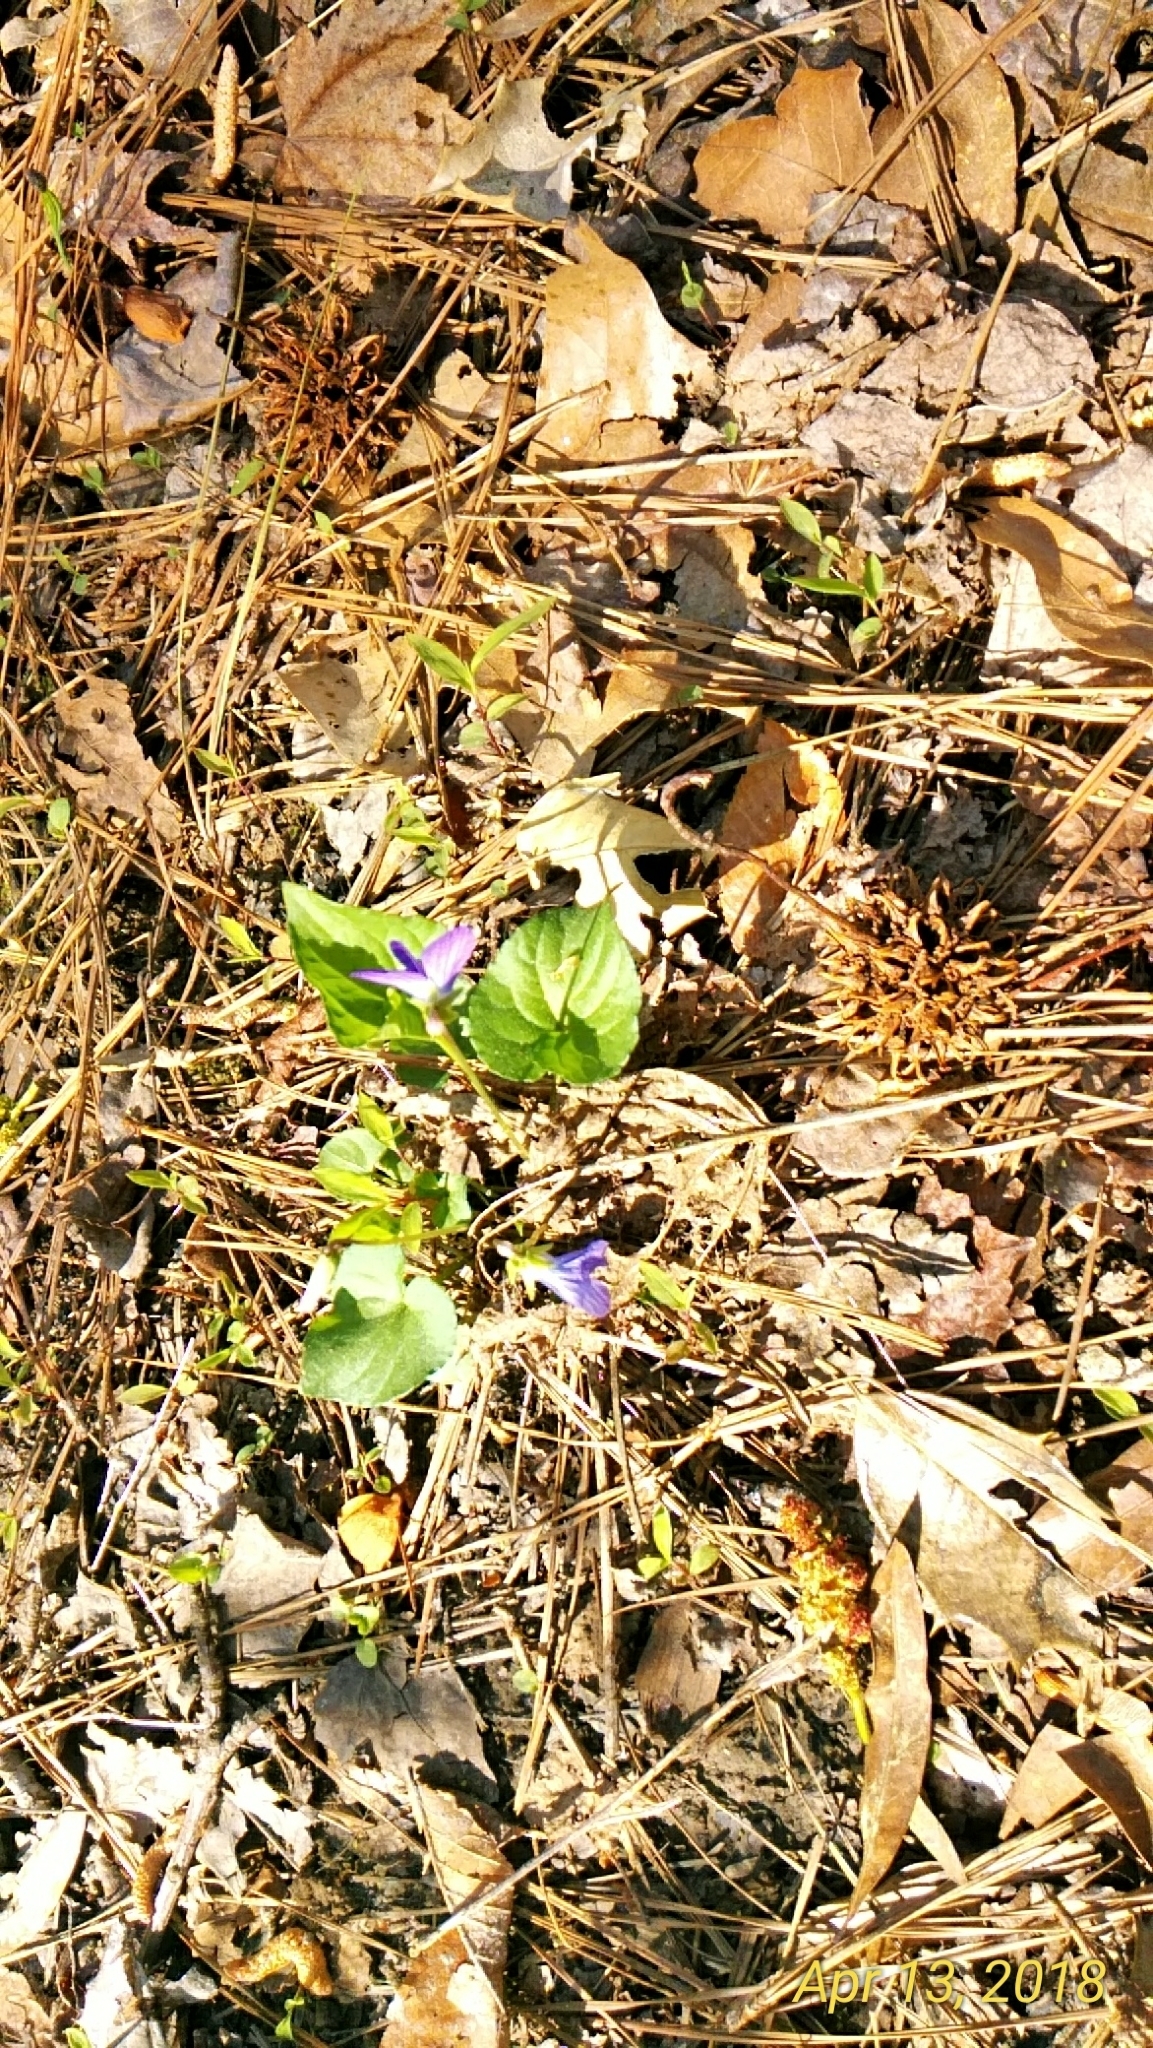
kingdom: Plantae
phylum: Tracheophyta
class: Magnoliopsida
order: Malpighiales
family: Violaceae
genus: Viola
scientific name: Viola sororia
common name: Dooryard violet
